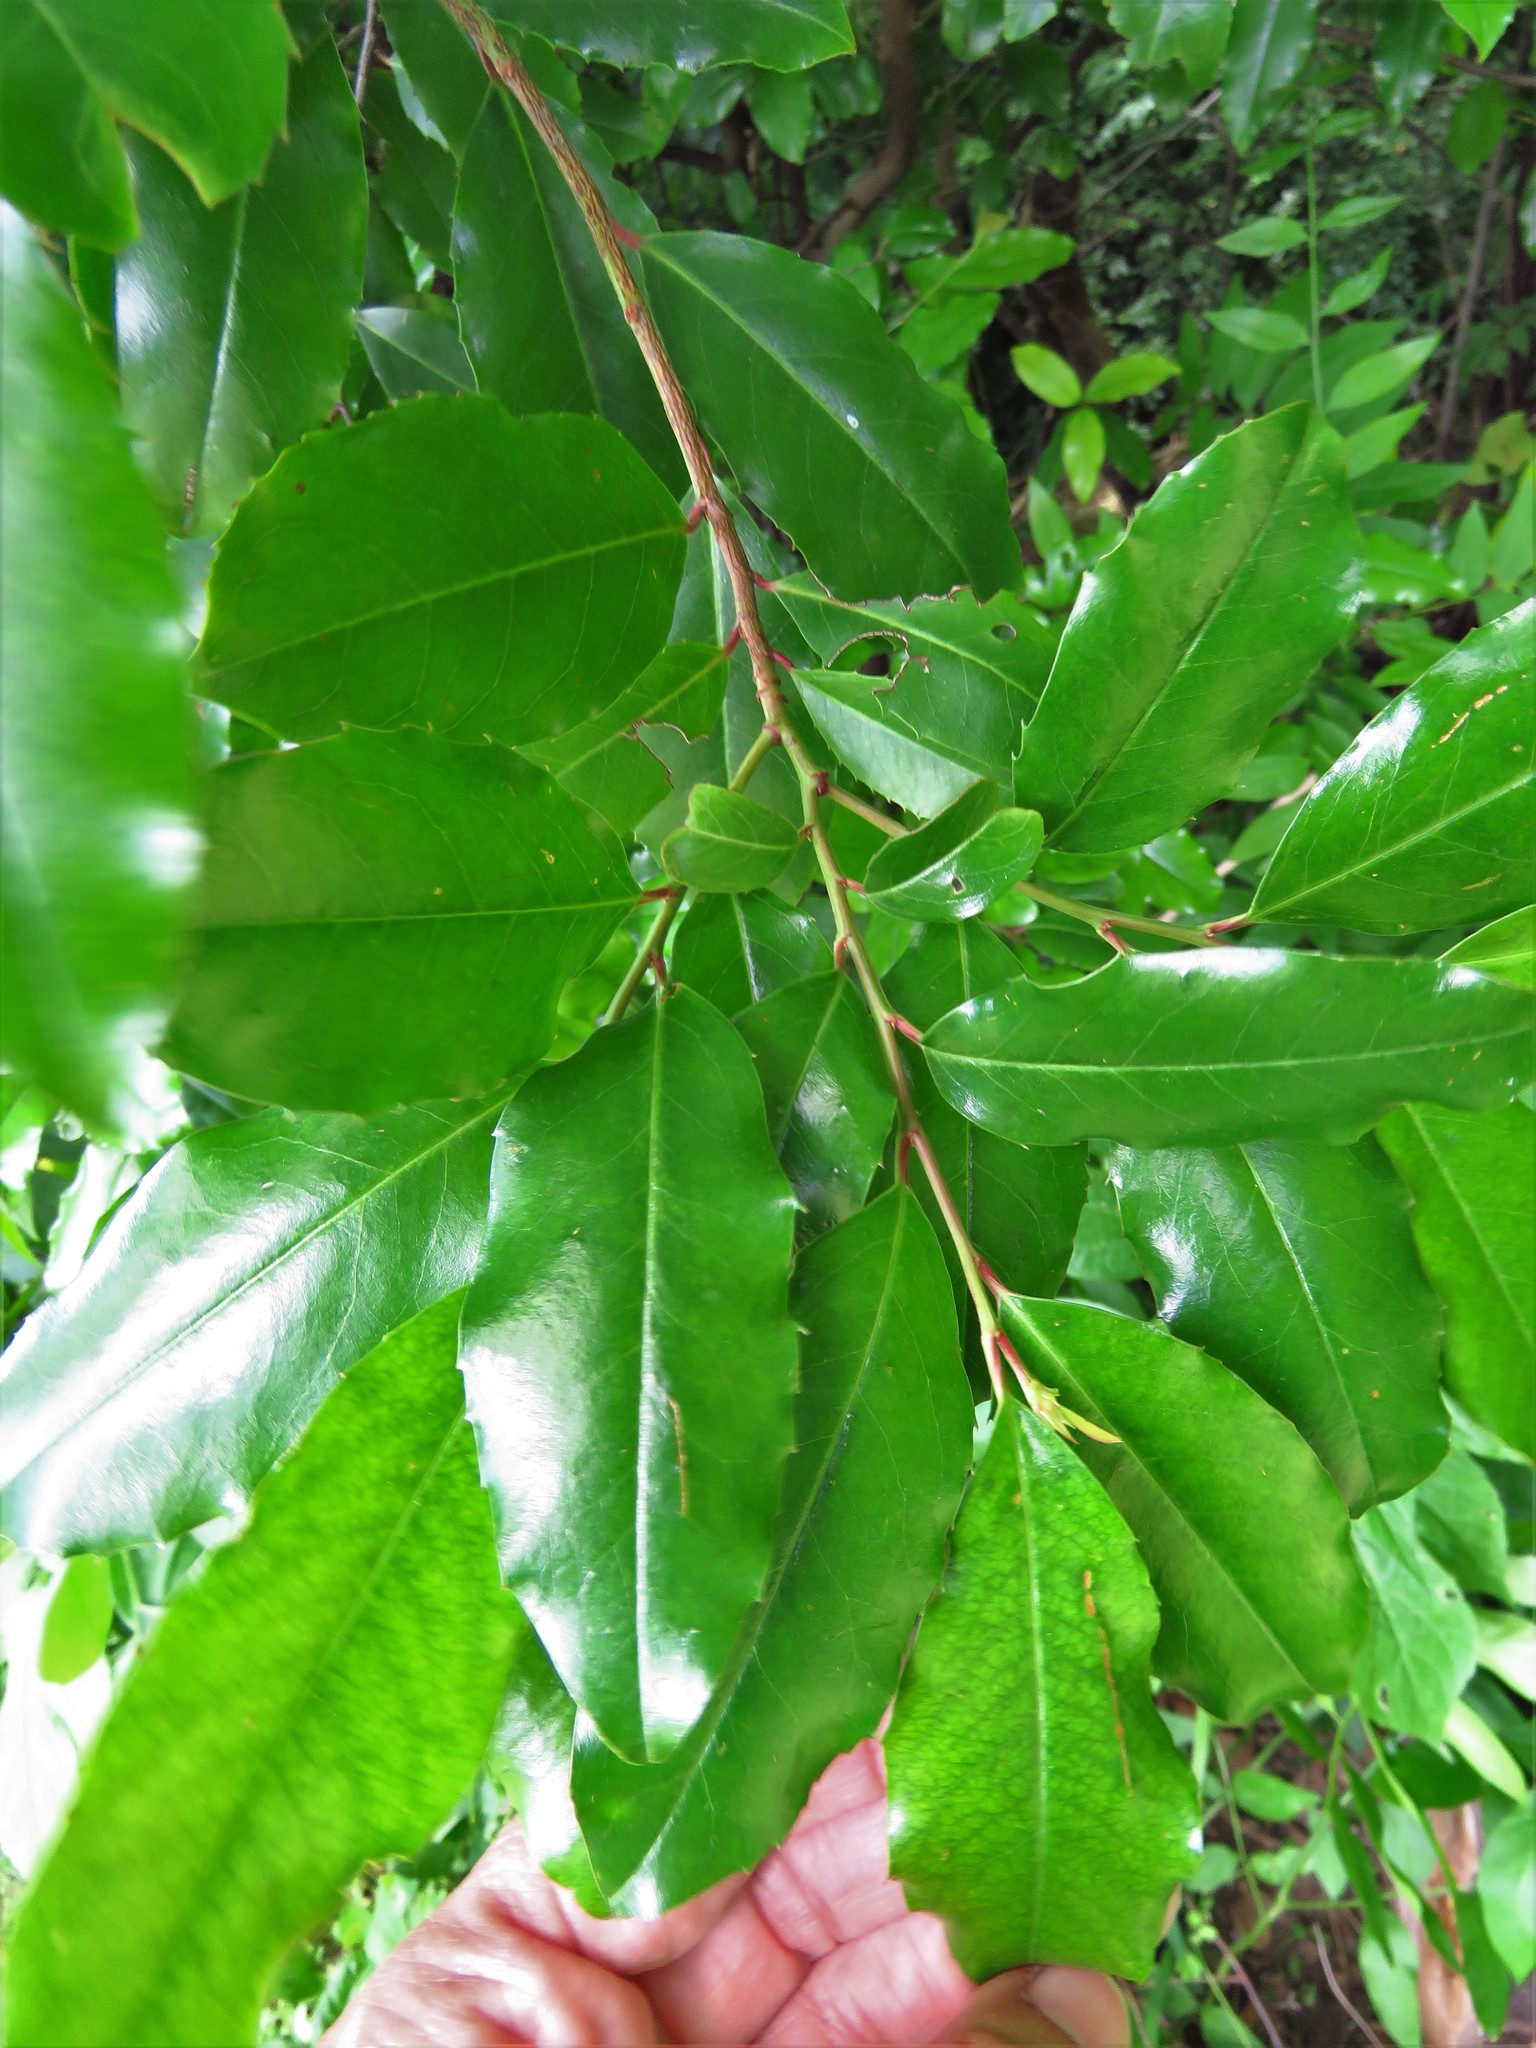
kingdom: Plantae
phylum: Tracheophyta
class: Magnoliopsida
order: Rosales
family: Rosaceae
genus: Prunus
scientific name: Prunus caroliniana
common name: Carolina laurel cherry
